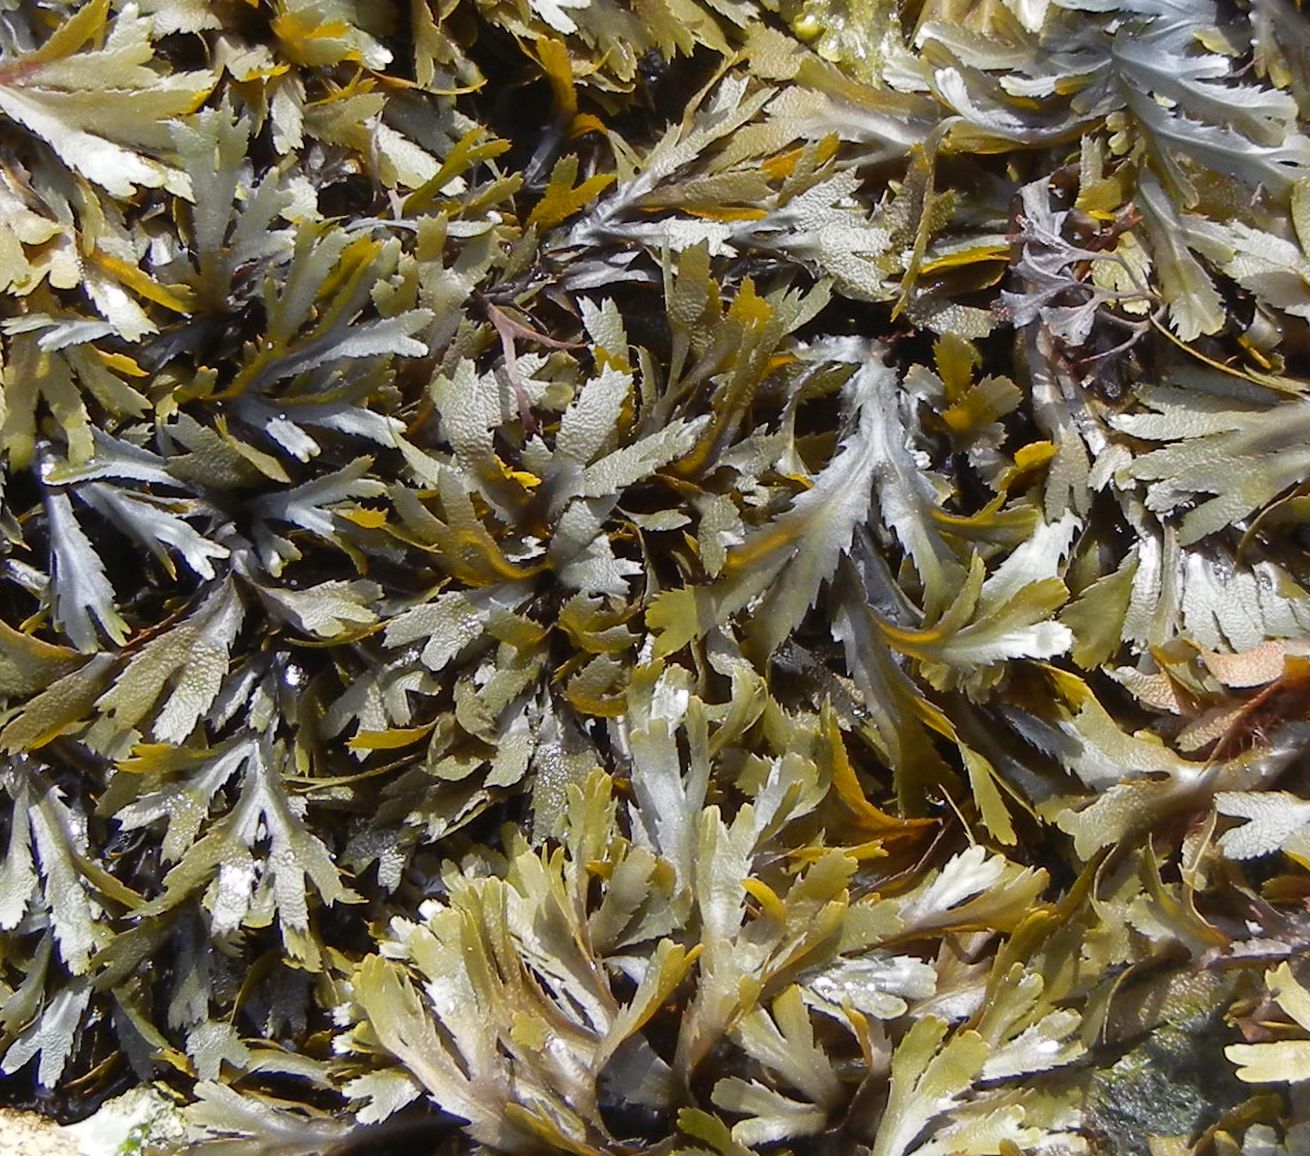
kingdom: Chromista
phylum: Ochrophyta
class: Phaeophyceae
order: Fucales
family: Fucaceae
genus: Fucus
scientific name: Fucus serratus
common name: Toothed wrack
